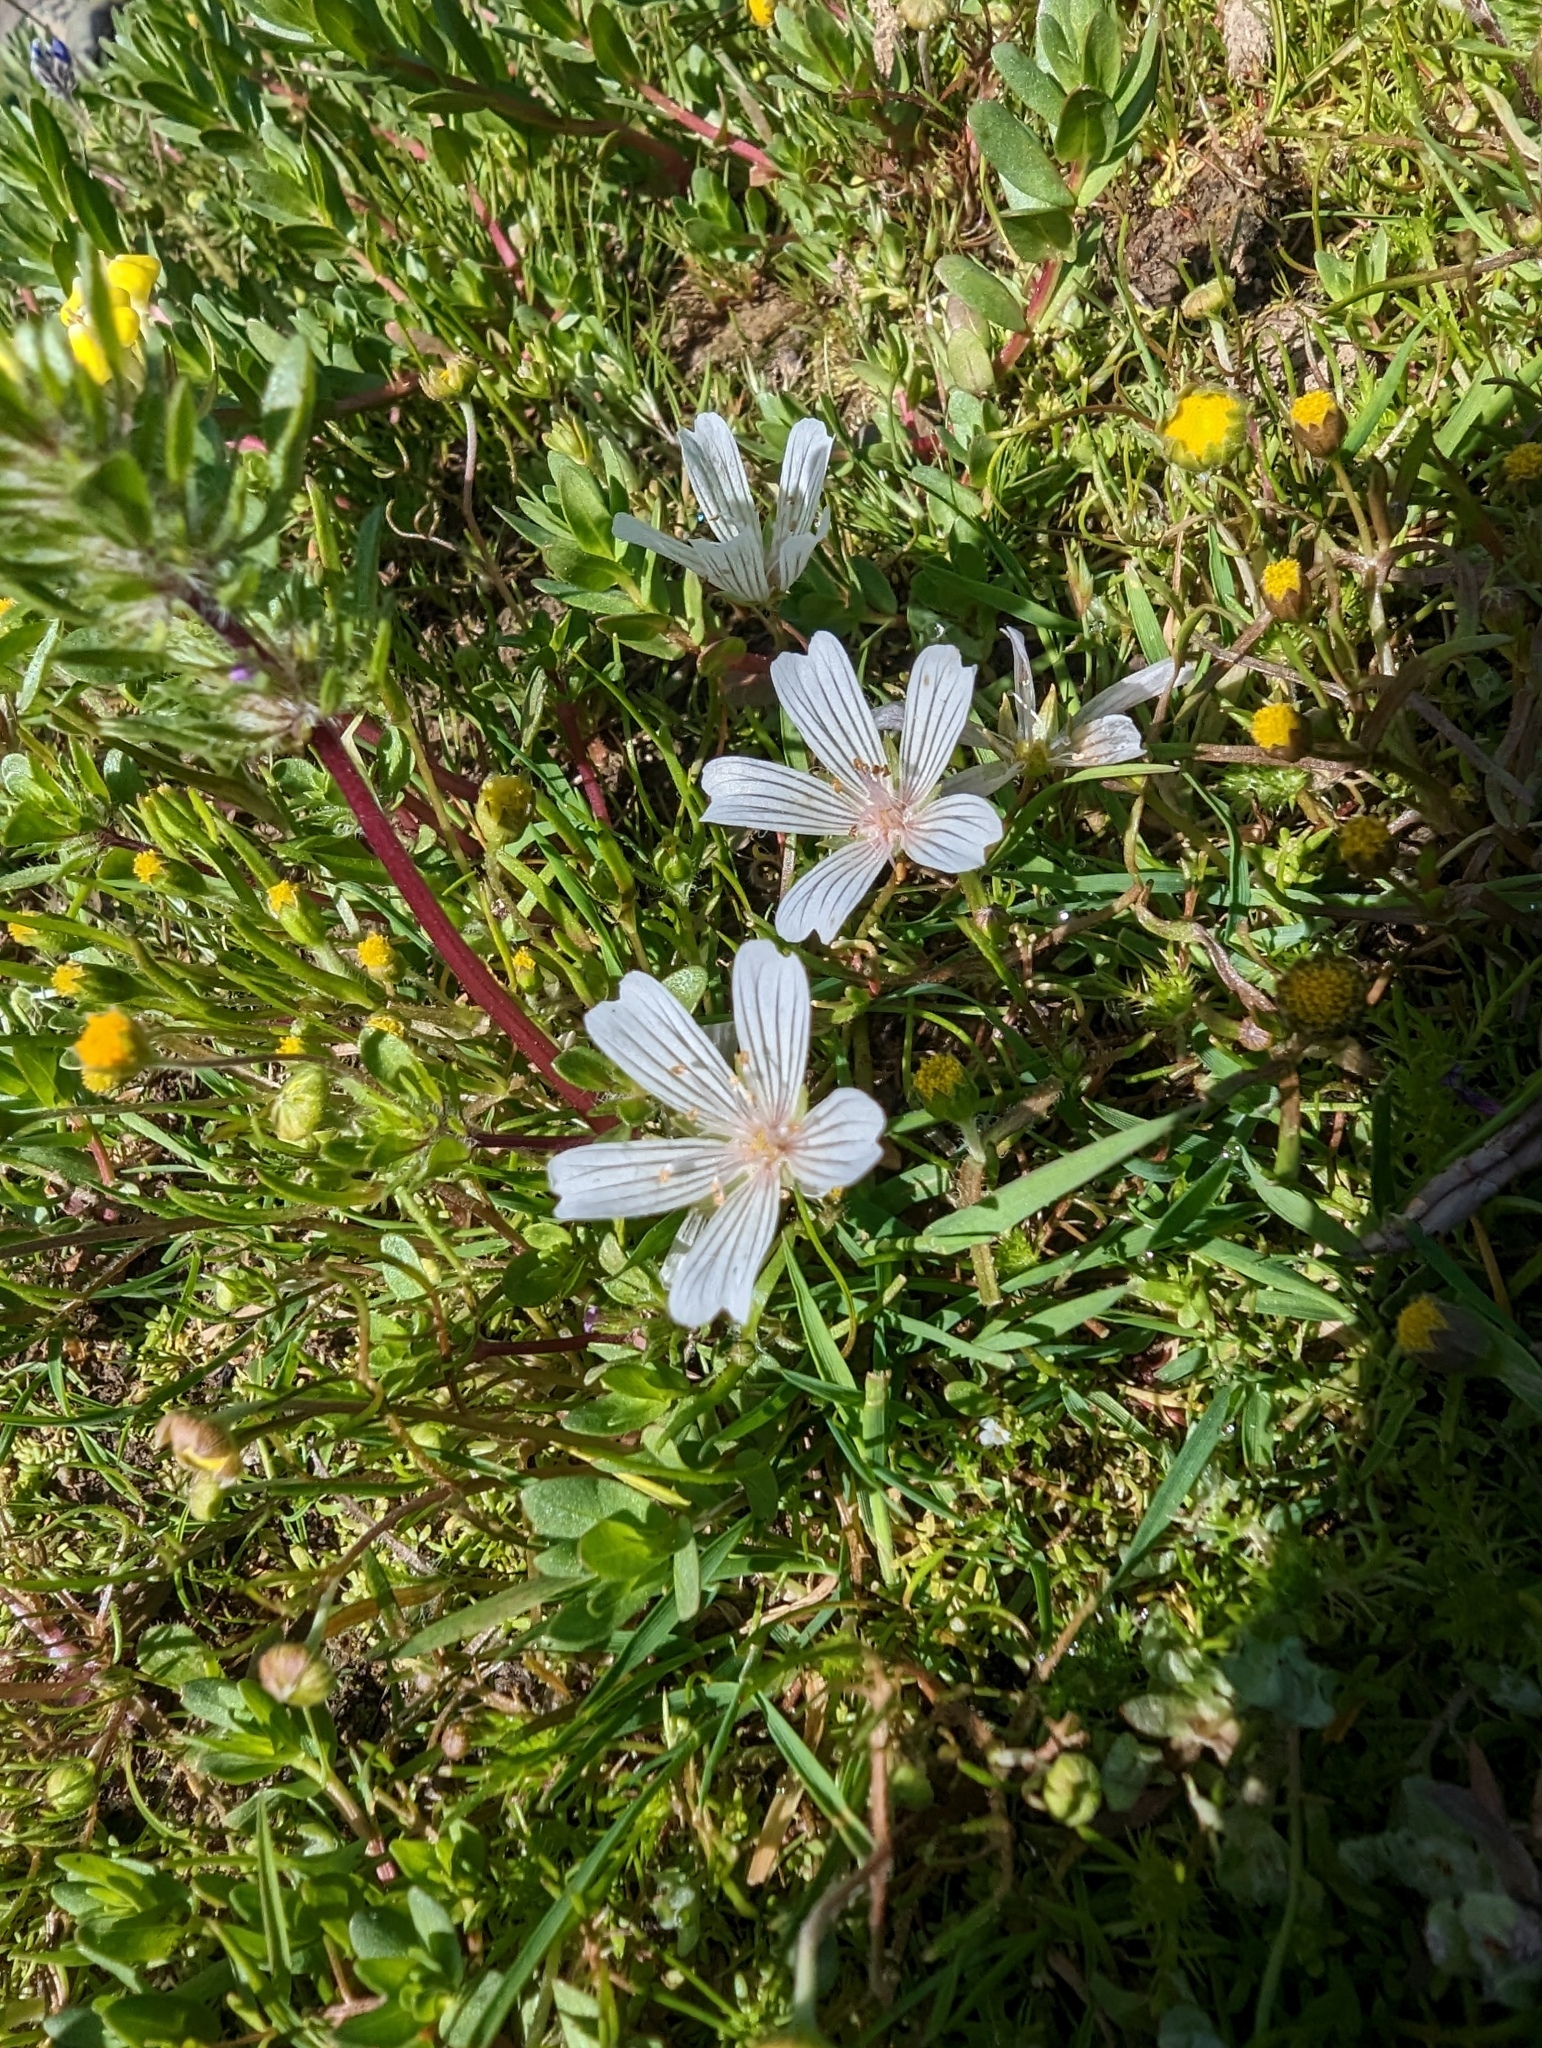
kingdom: Plantae
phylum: Tracheophyta
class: Magnoliopsida
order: Brassicales
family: Limnanthaceae
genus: Limnanthes
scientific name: Limnanthes douglasii
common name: Meadow-foam
